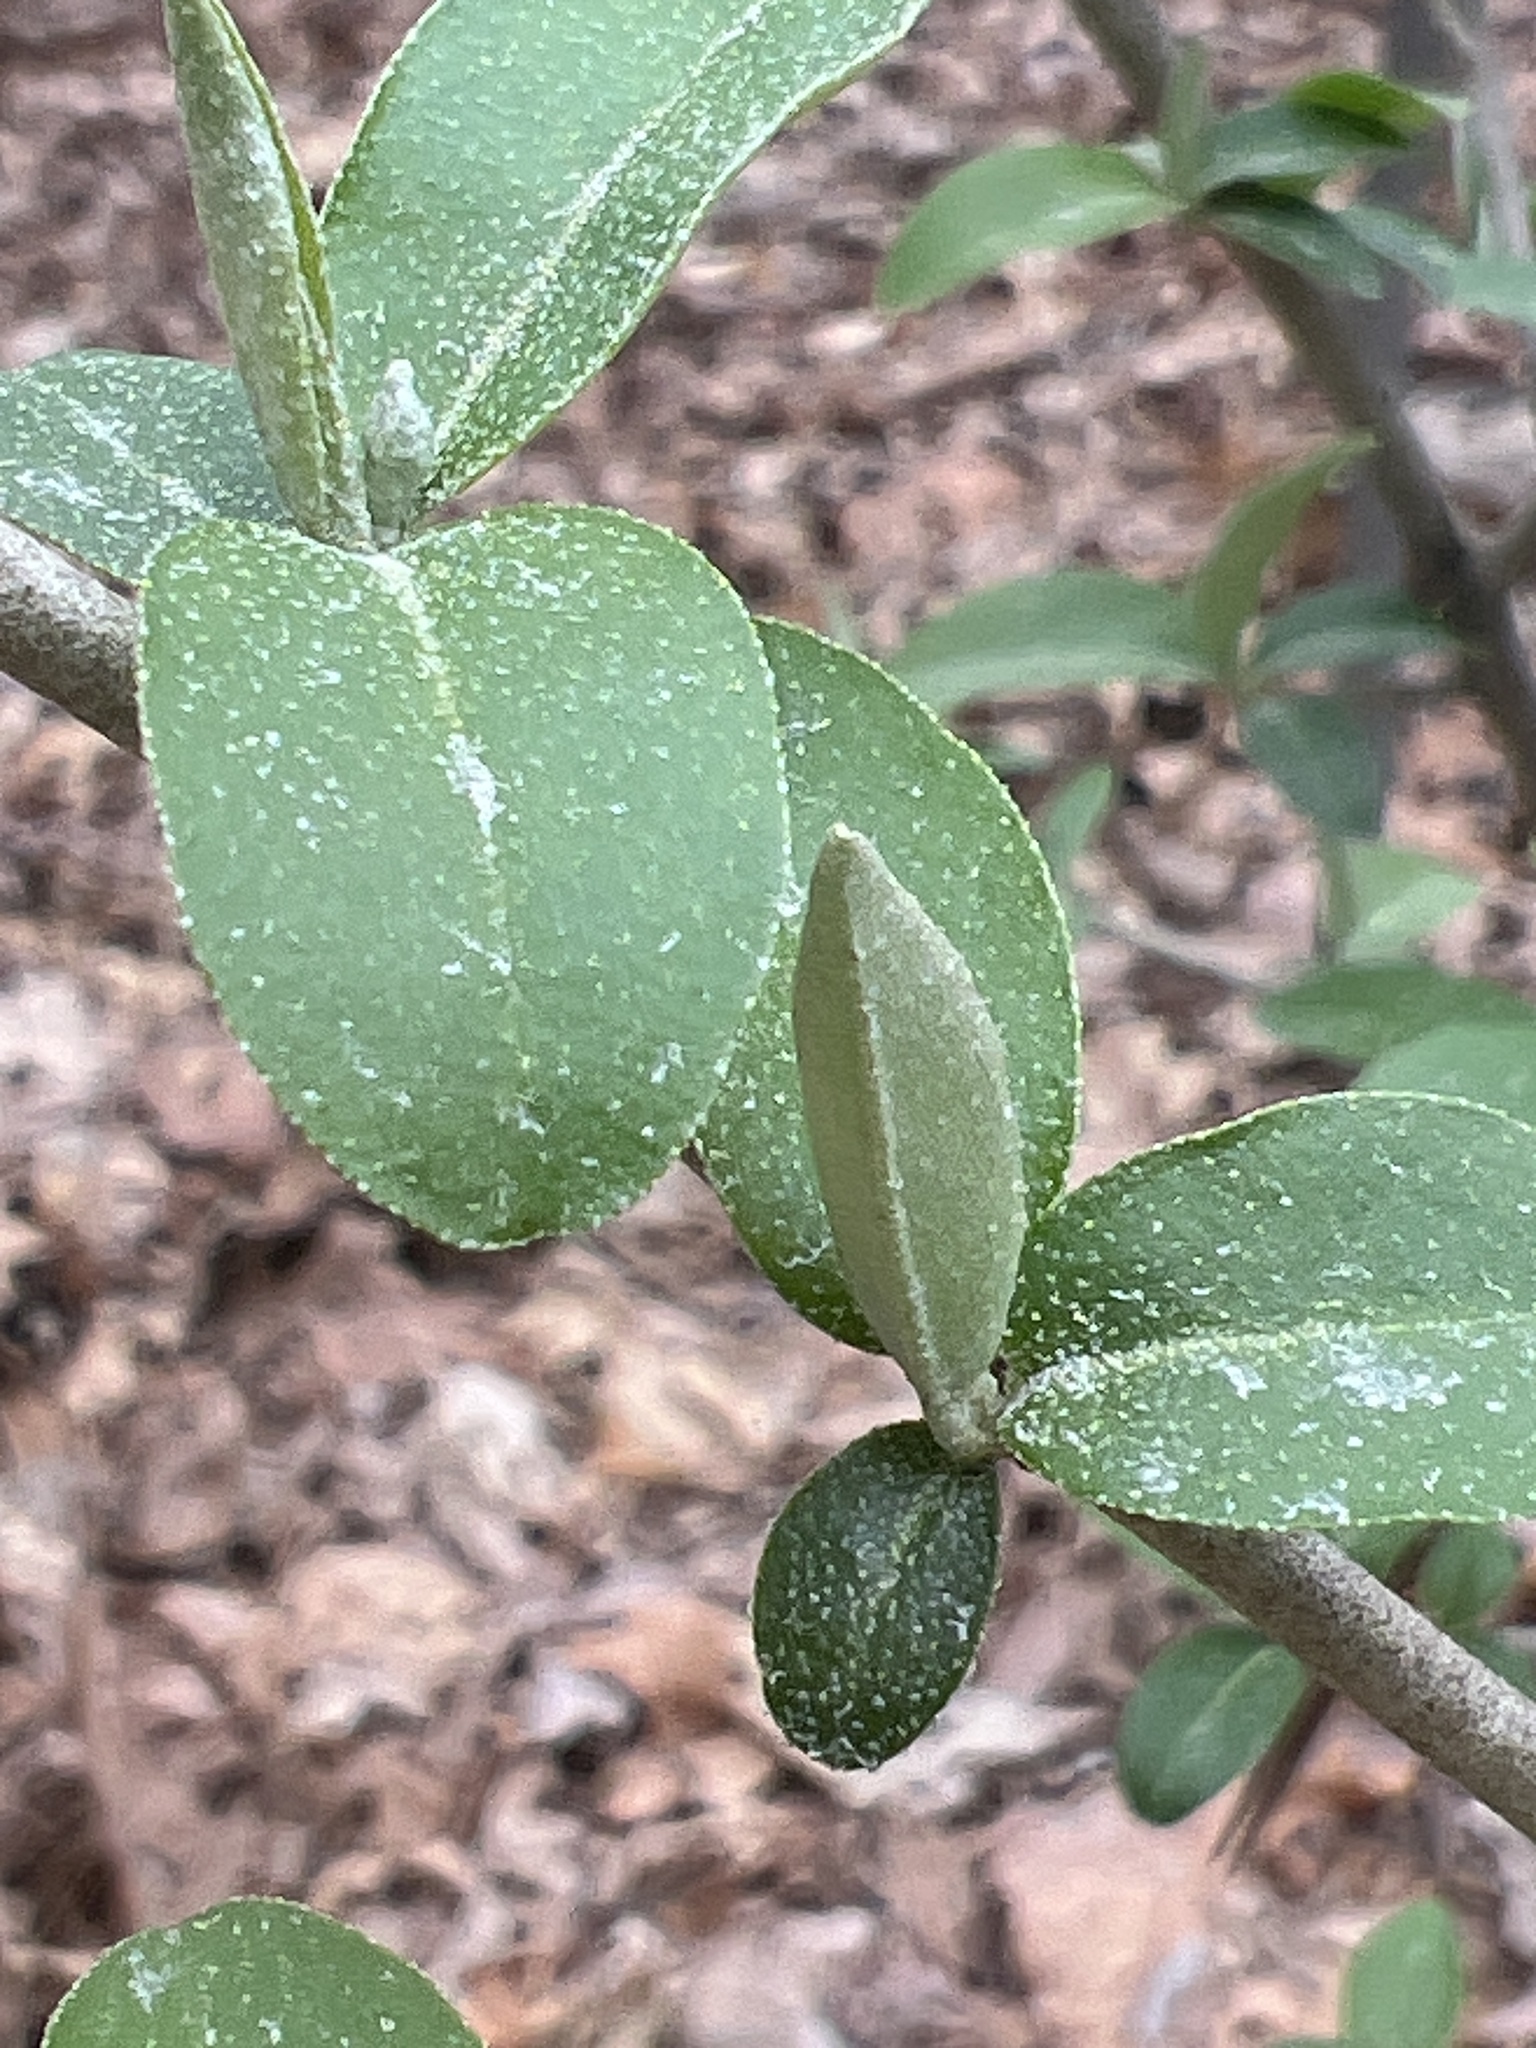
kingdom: Plantae
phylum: Tracheophyta
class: Magnoliopsida
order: Rosales
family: Elaeagnaceae
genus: Elaeagnus
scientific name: Elaeagnus umbellata
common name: Autumn olive
